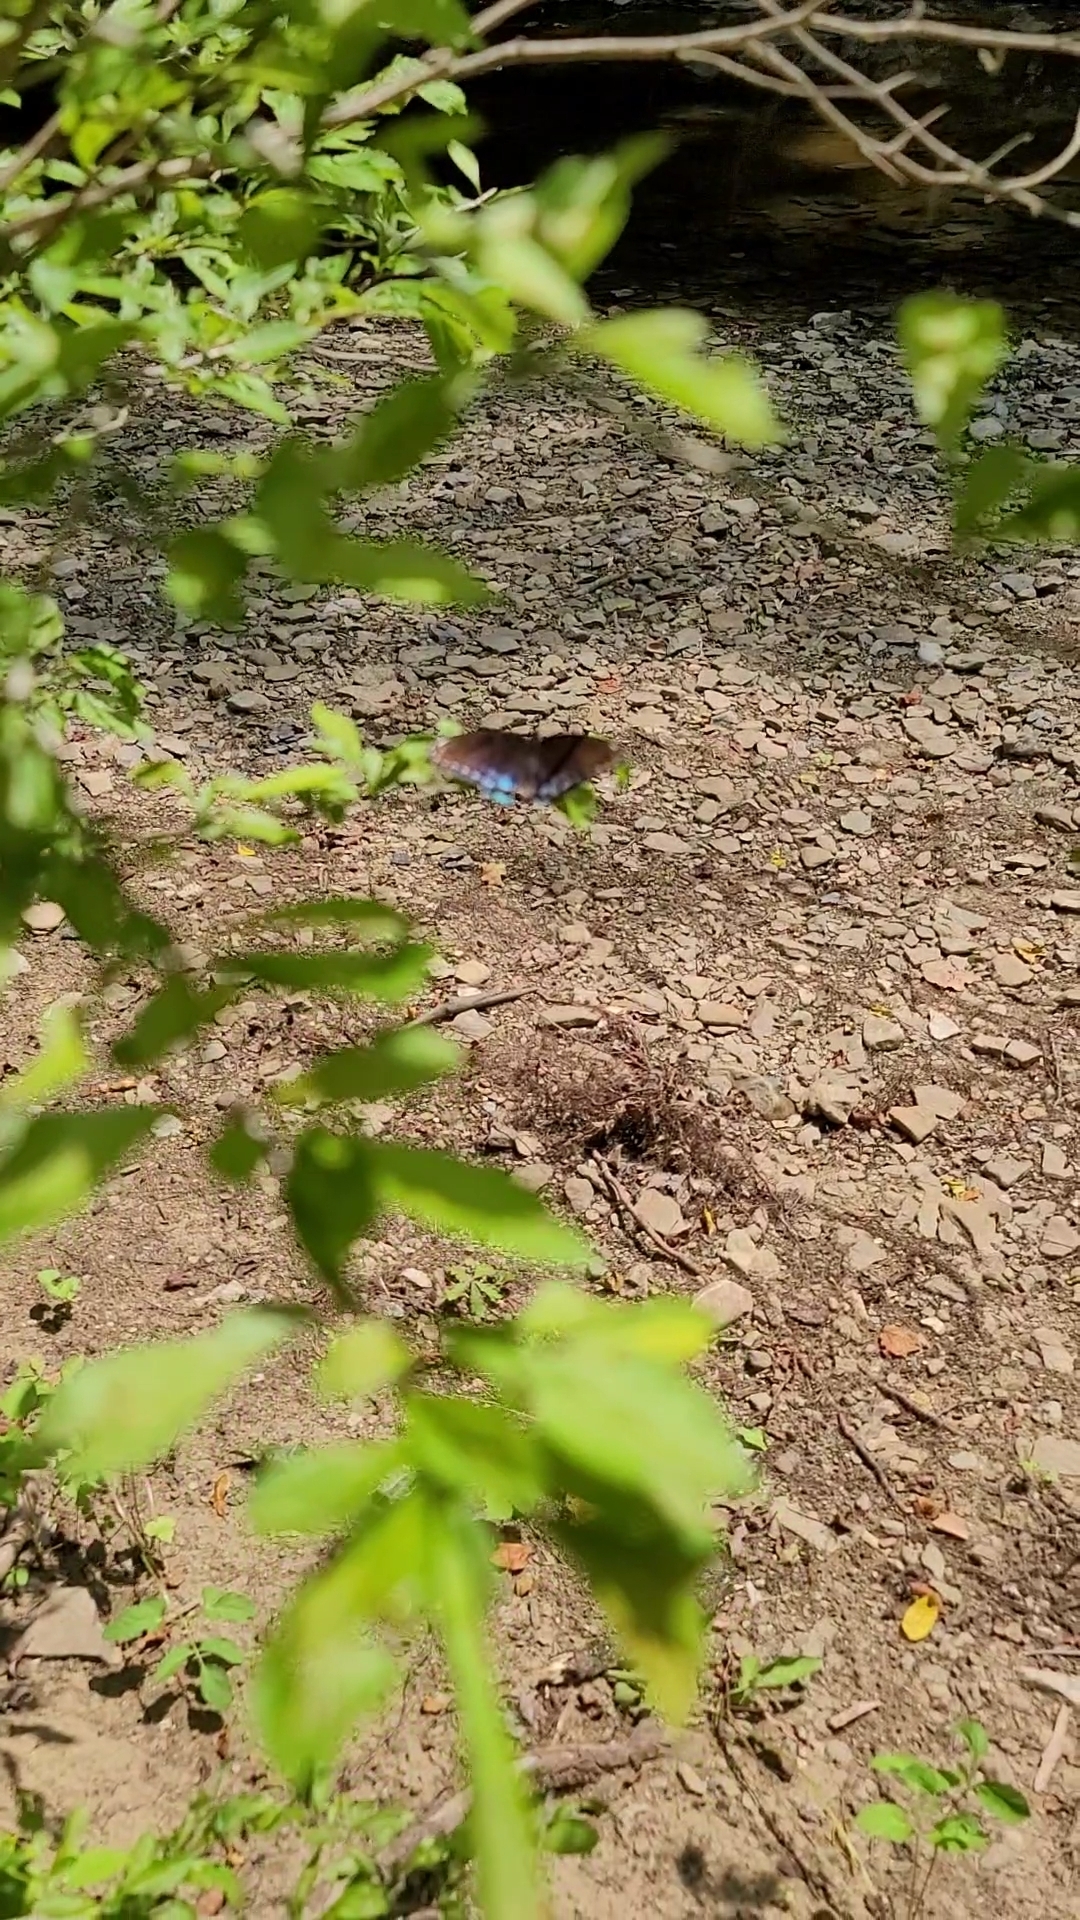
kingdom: Animalia
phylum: Arthropoda
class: Insecta
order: Lepidoptera
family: Nymphalidae
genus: Limenitis
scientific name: Limenitis astyanax
